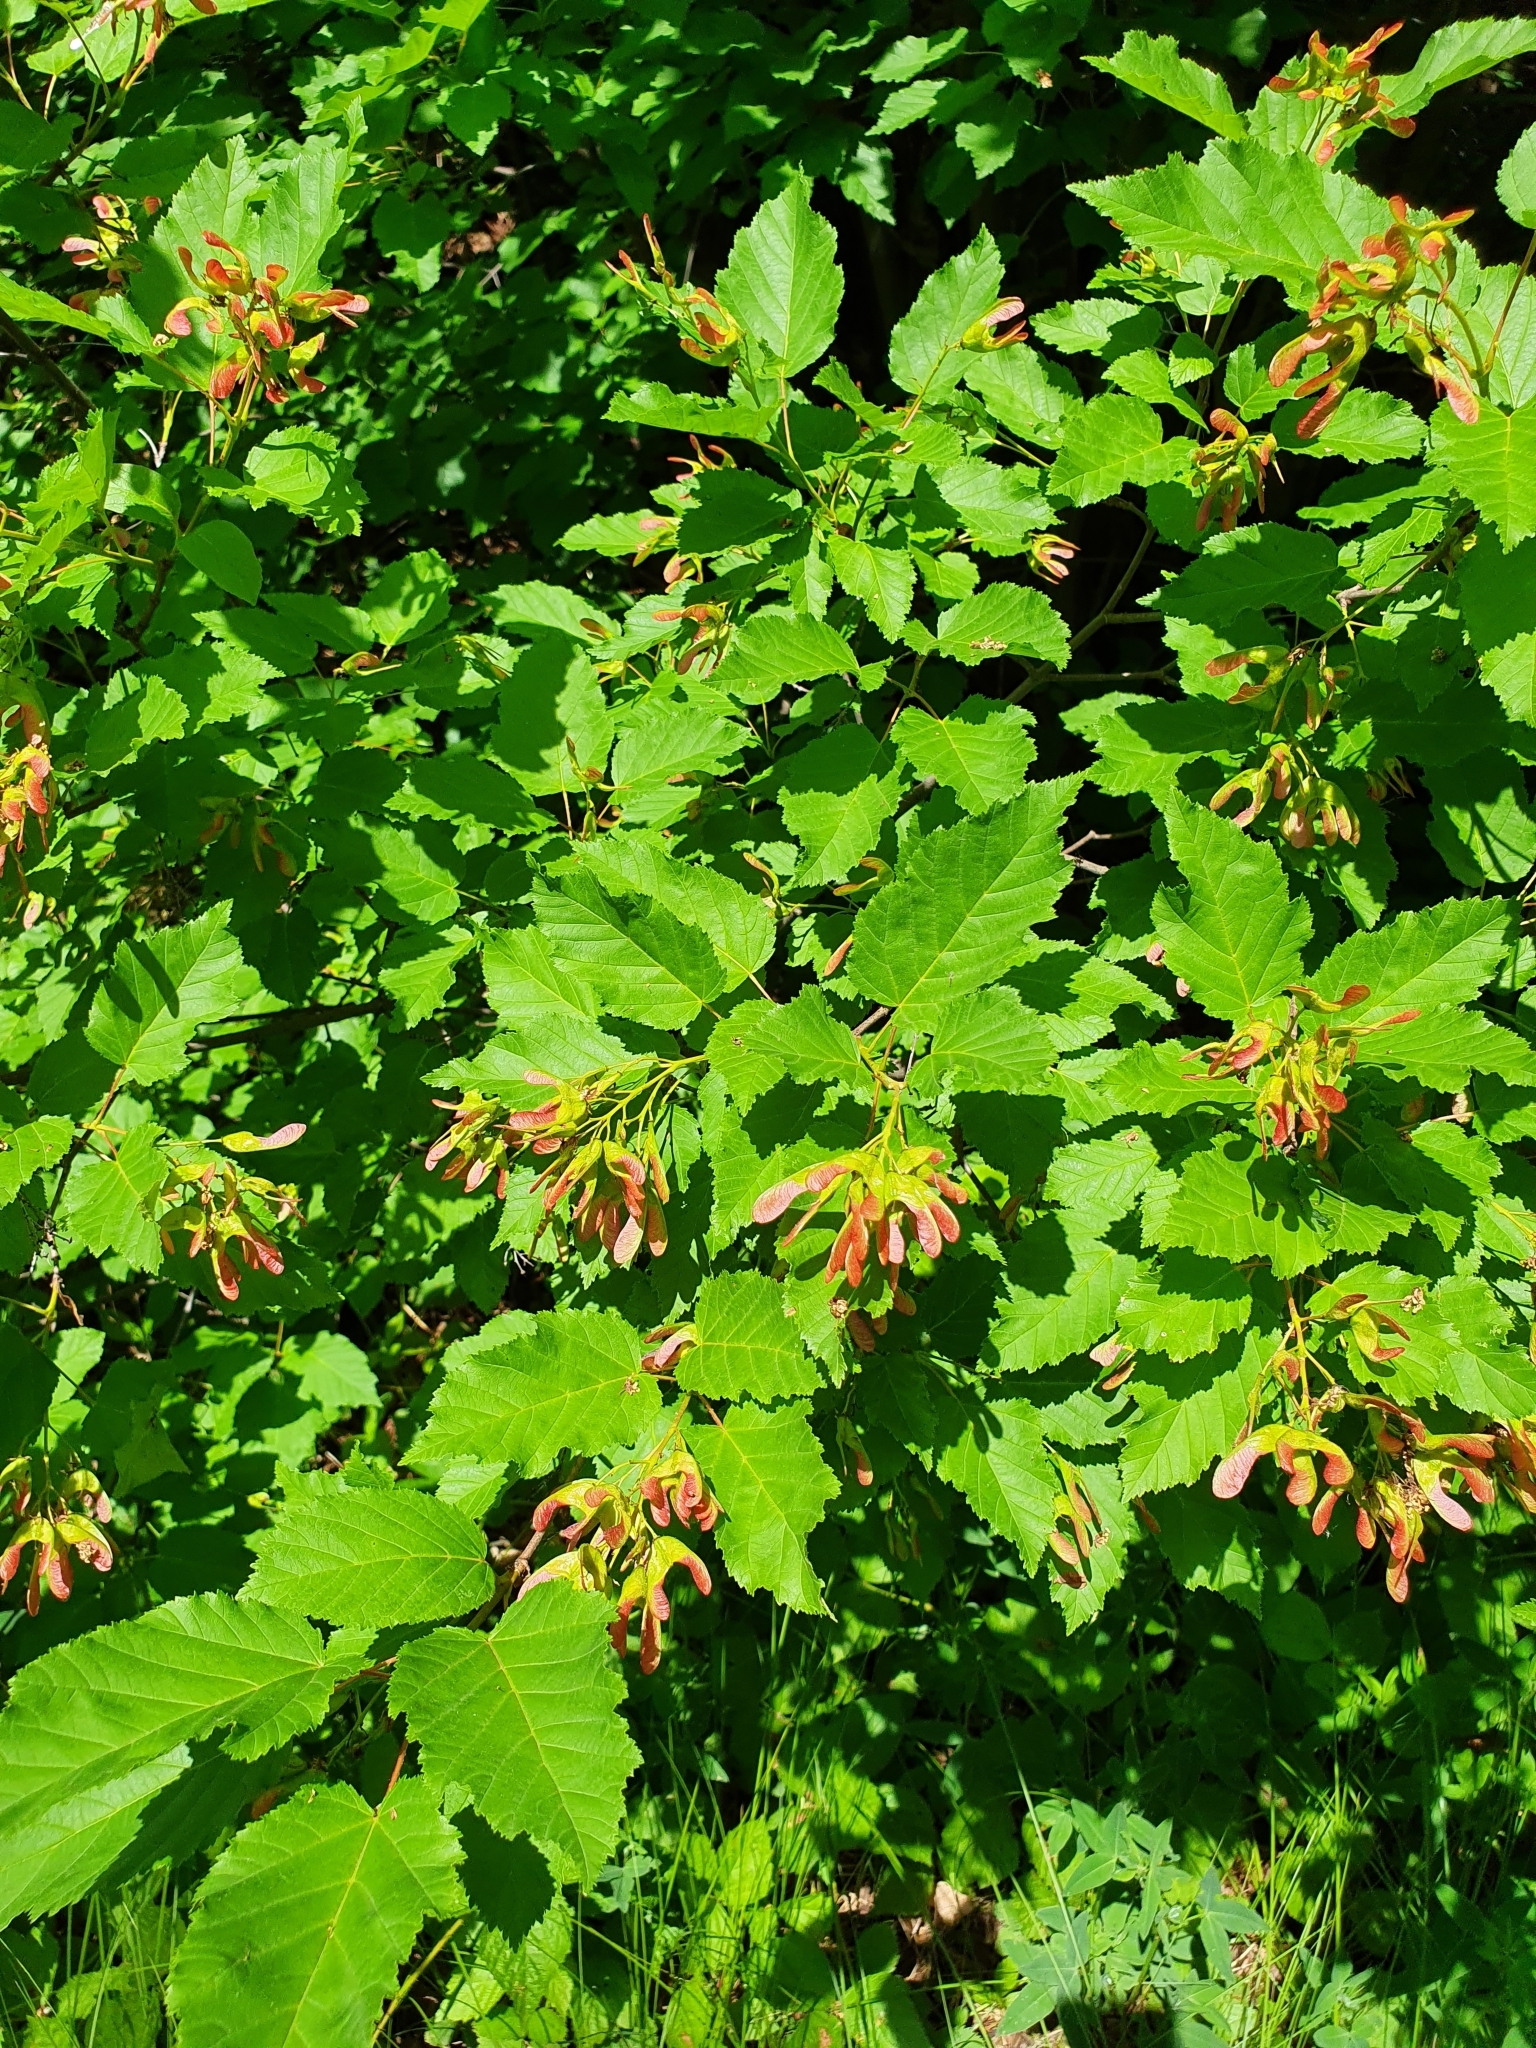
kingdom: Plantae
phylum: Tracheophyta
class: Magnoliopsida
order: Sapindales
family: Sapindaceae
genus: Acer
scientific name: Acer tataricum
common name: Tartar maple
